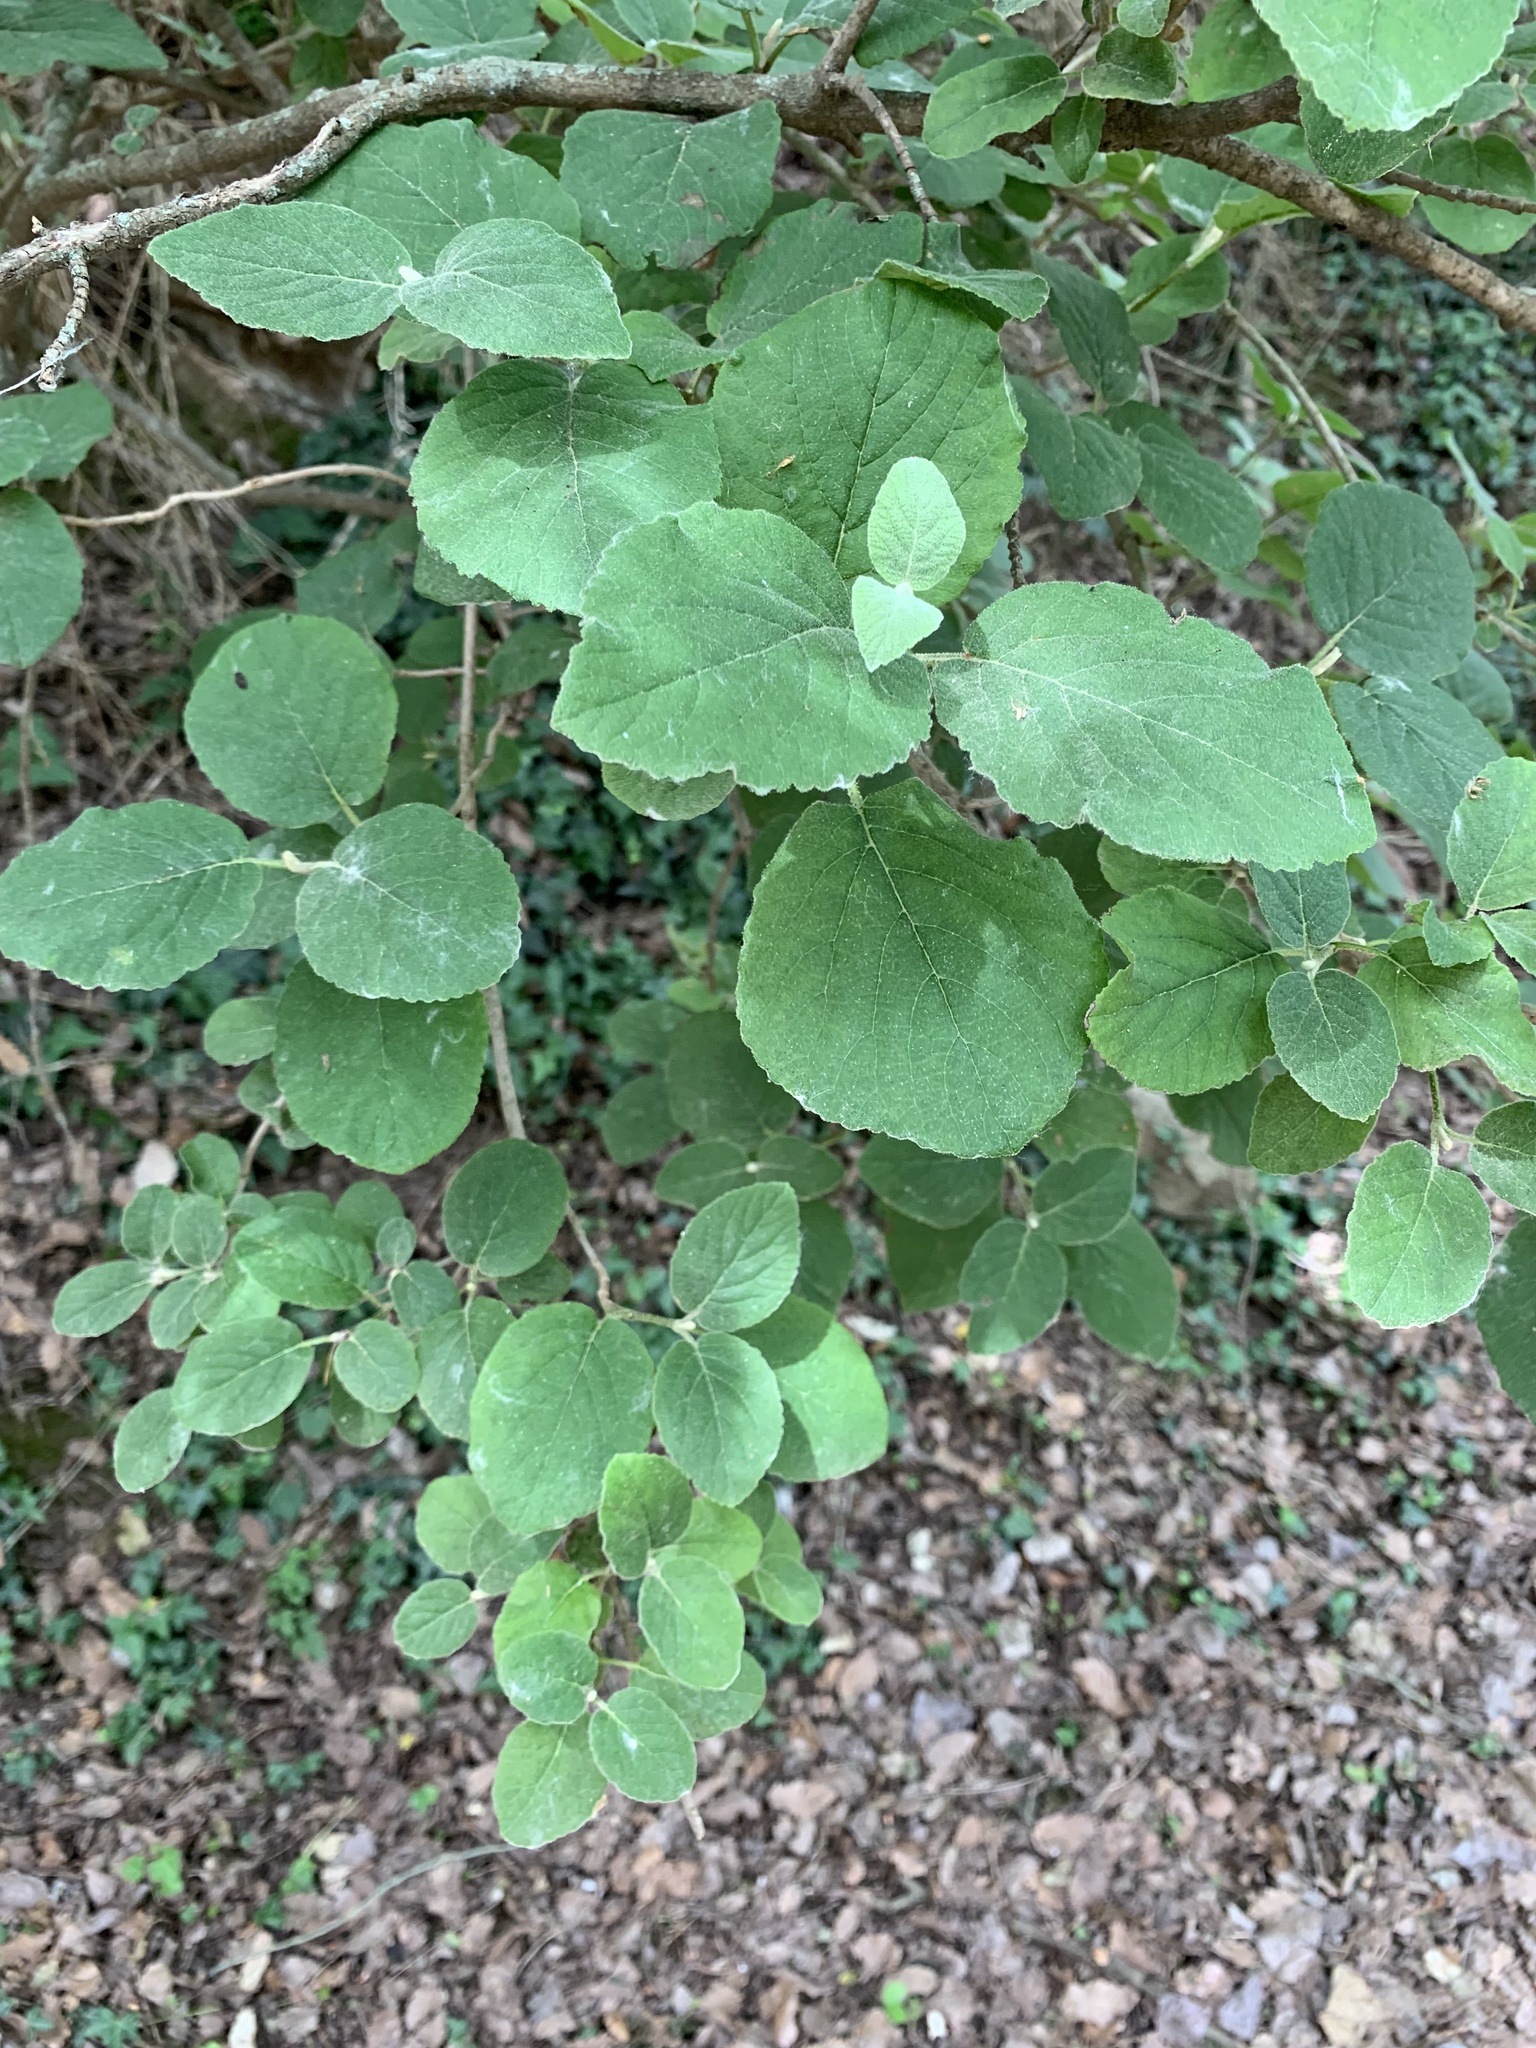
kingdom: Plantae
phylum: Tracheophyta
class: Magnoliopsida
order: Dipsacales
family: Viburnaceae
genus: Viburnum
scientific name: Viburnum lantana
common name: Wayfaring tree
